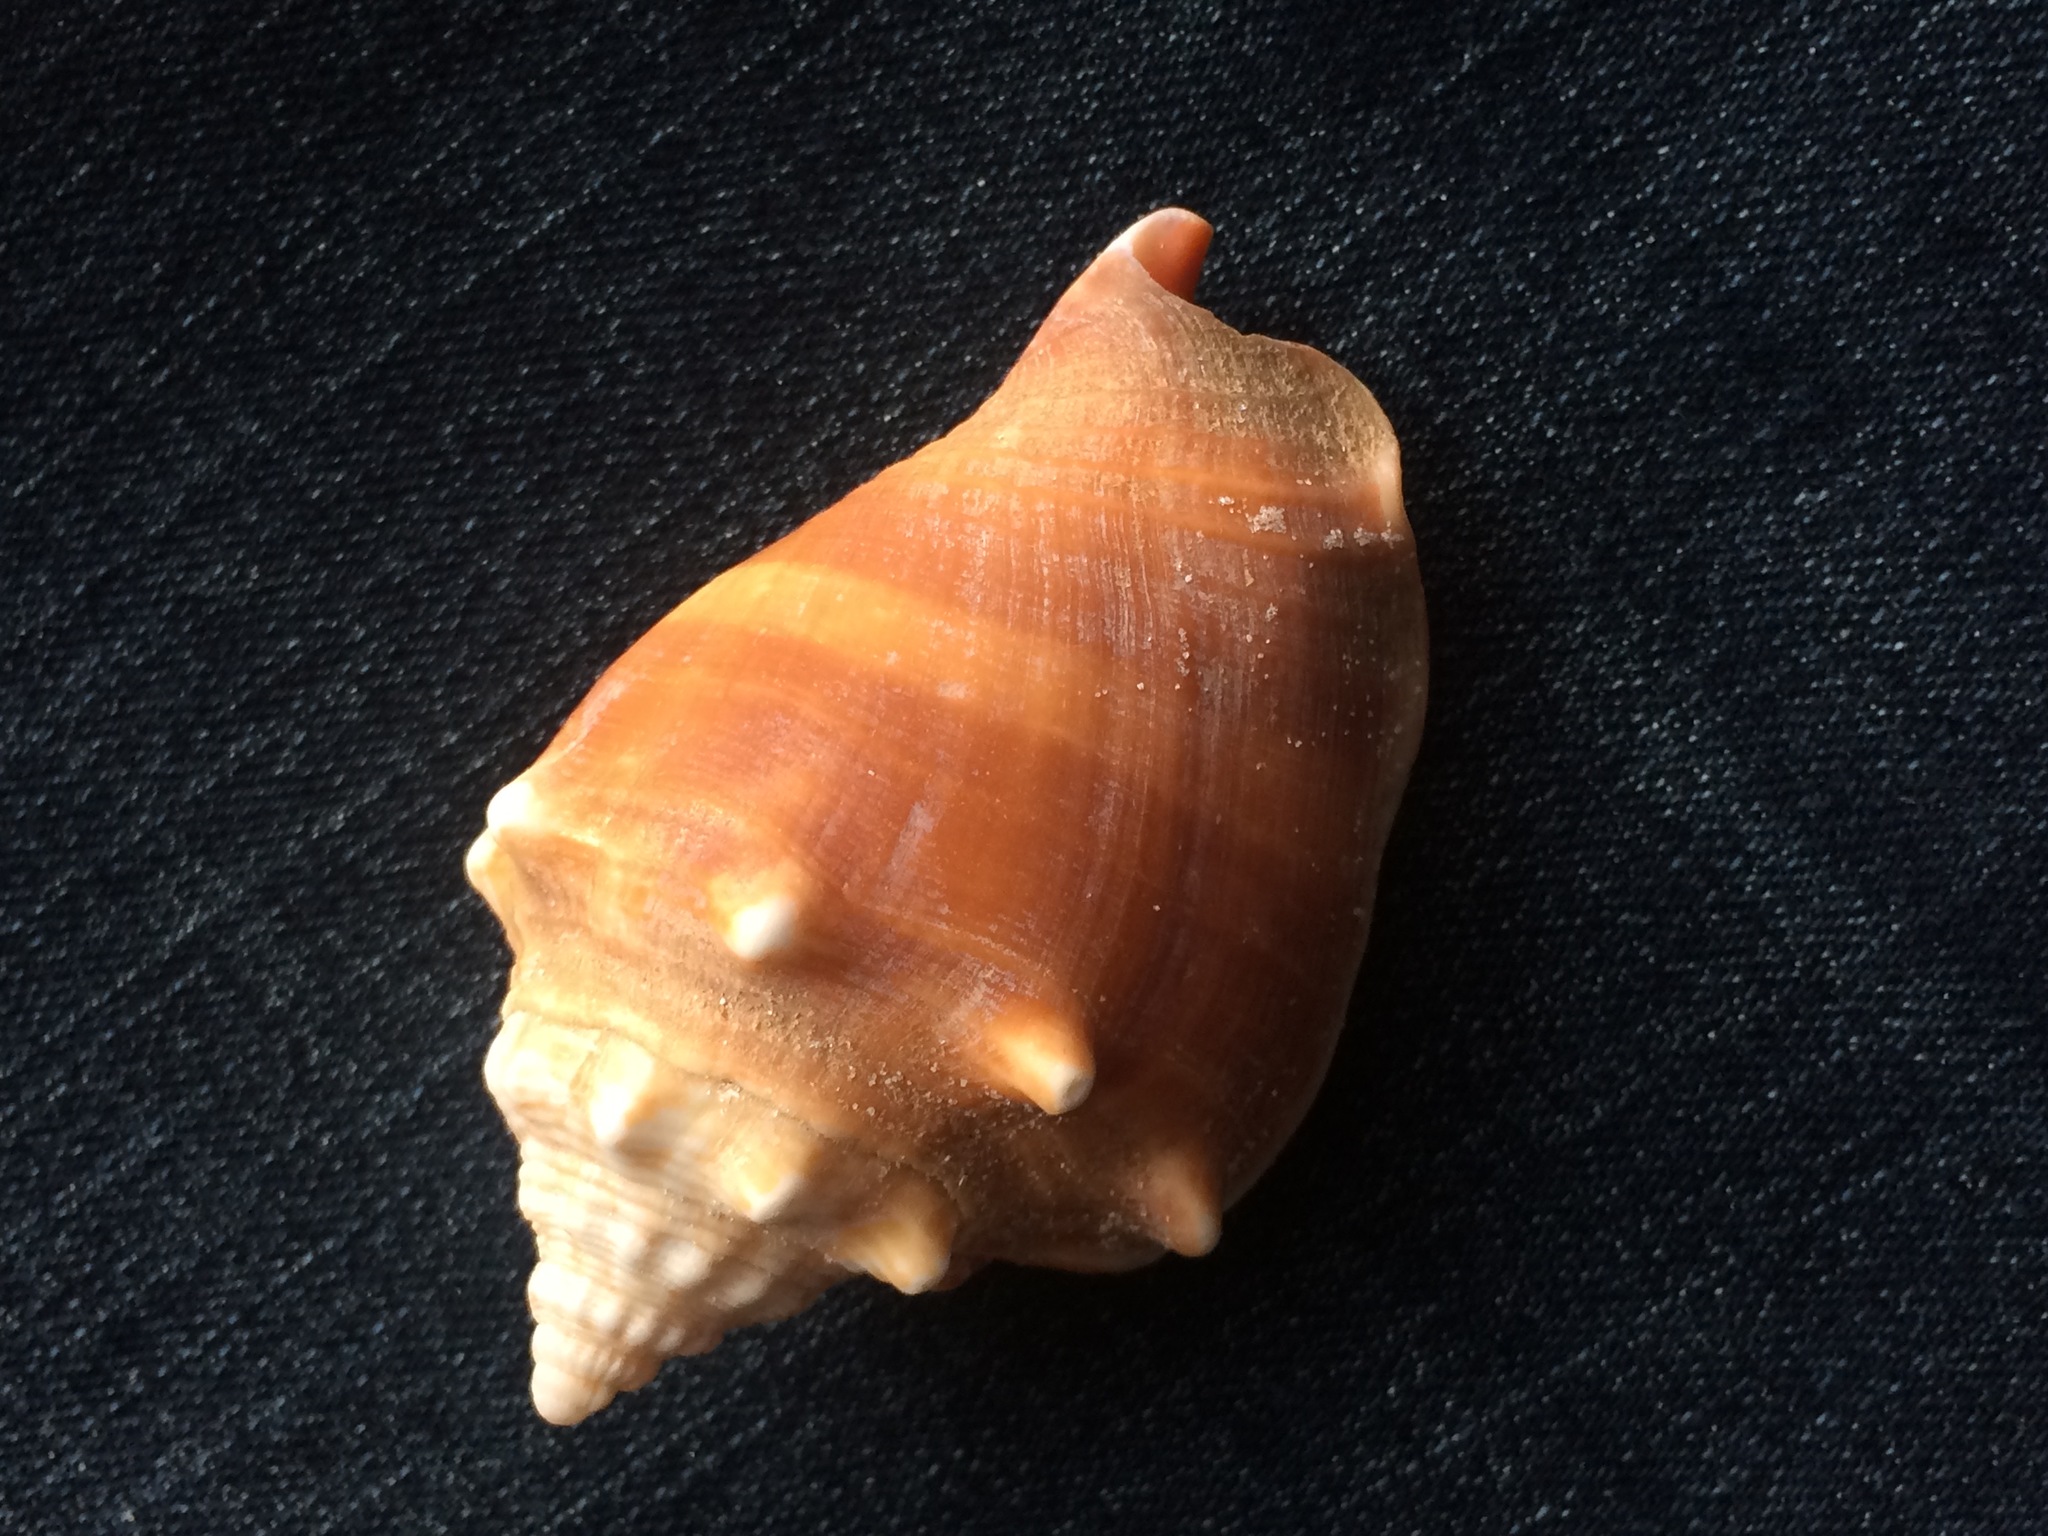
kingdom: Animalia
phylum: Mollusca
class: Gastropoda
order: Littorinimorpha
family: Strombidae
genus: Strombus
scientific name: Strombus alatus
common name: Florida fighting conch
